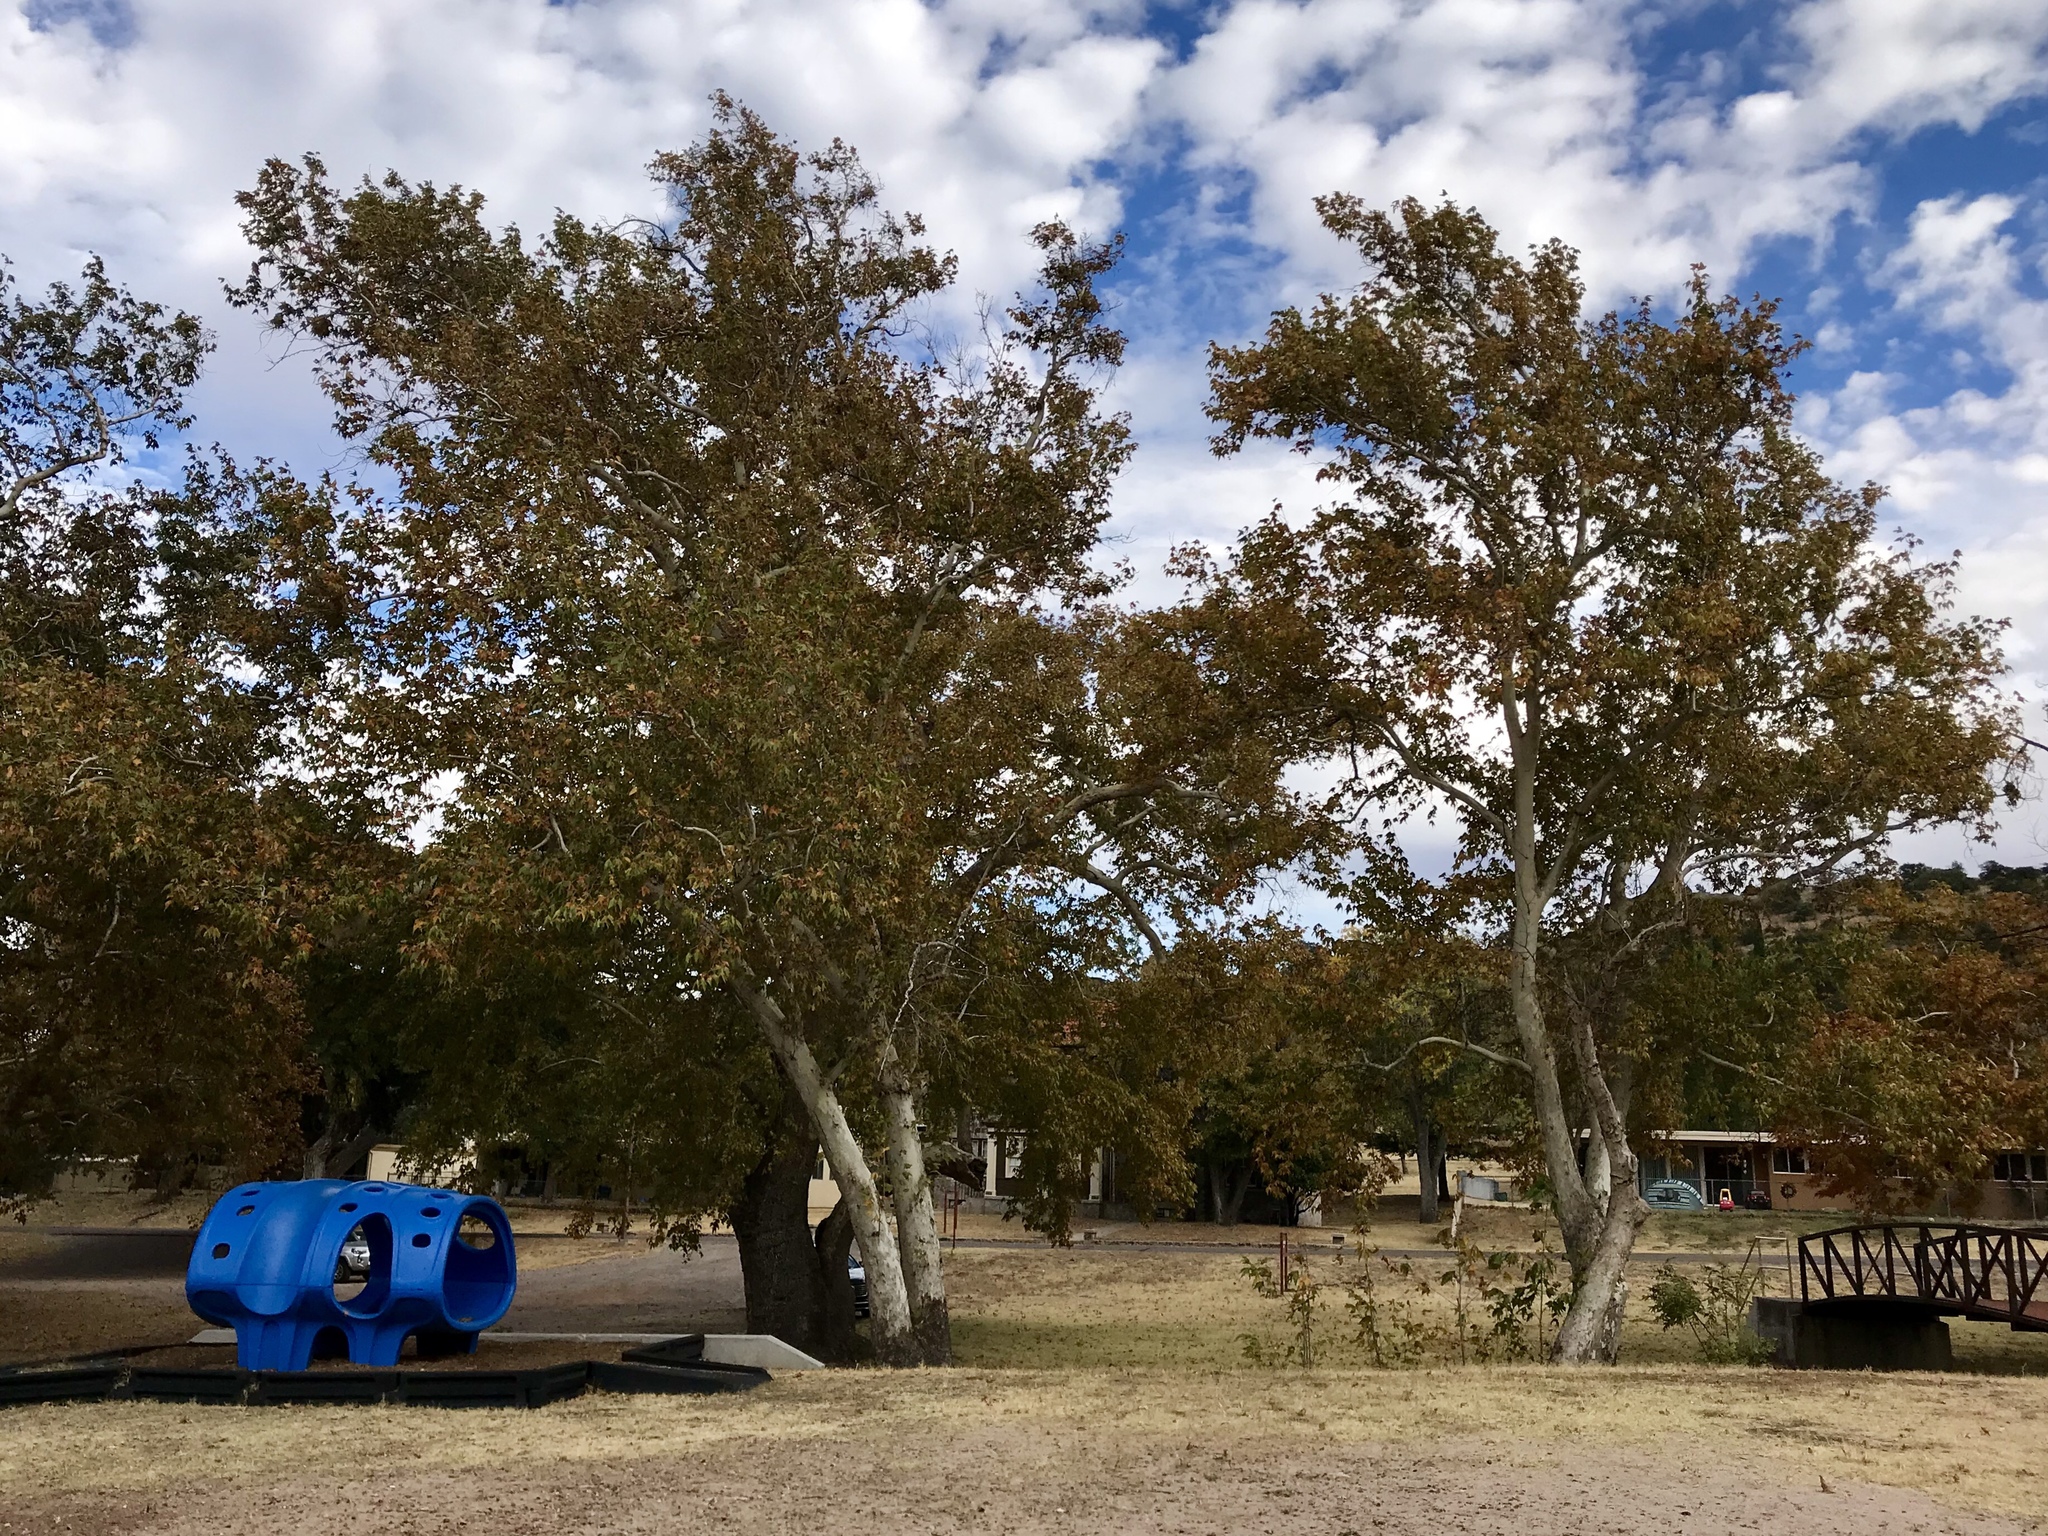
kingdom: Plantae
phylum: Tracheophyta
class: Magnoliopsida
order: Proteales
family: Platanaceae
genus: Platanus
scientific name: Platanus wrightii
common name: Arizona sycamore
